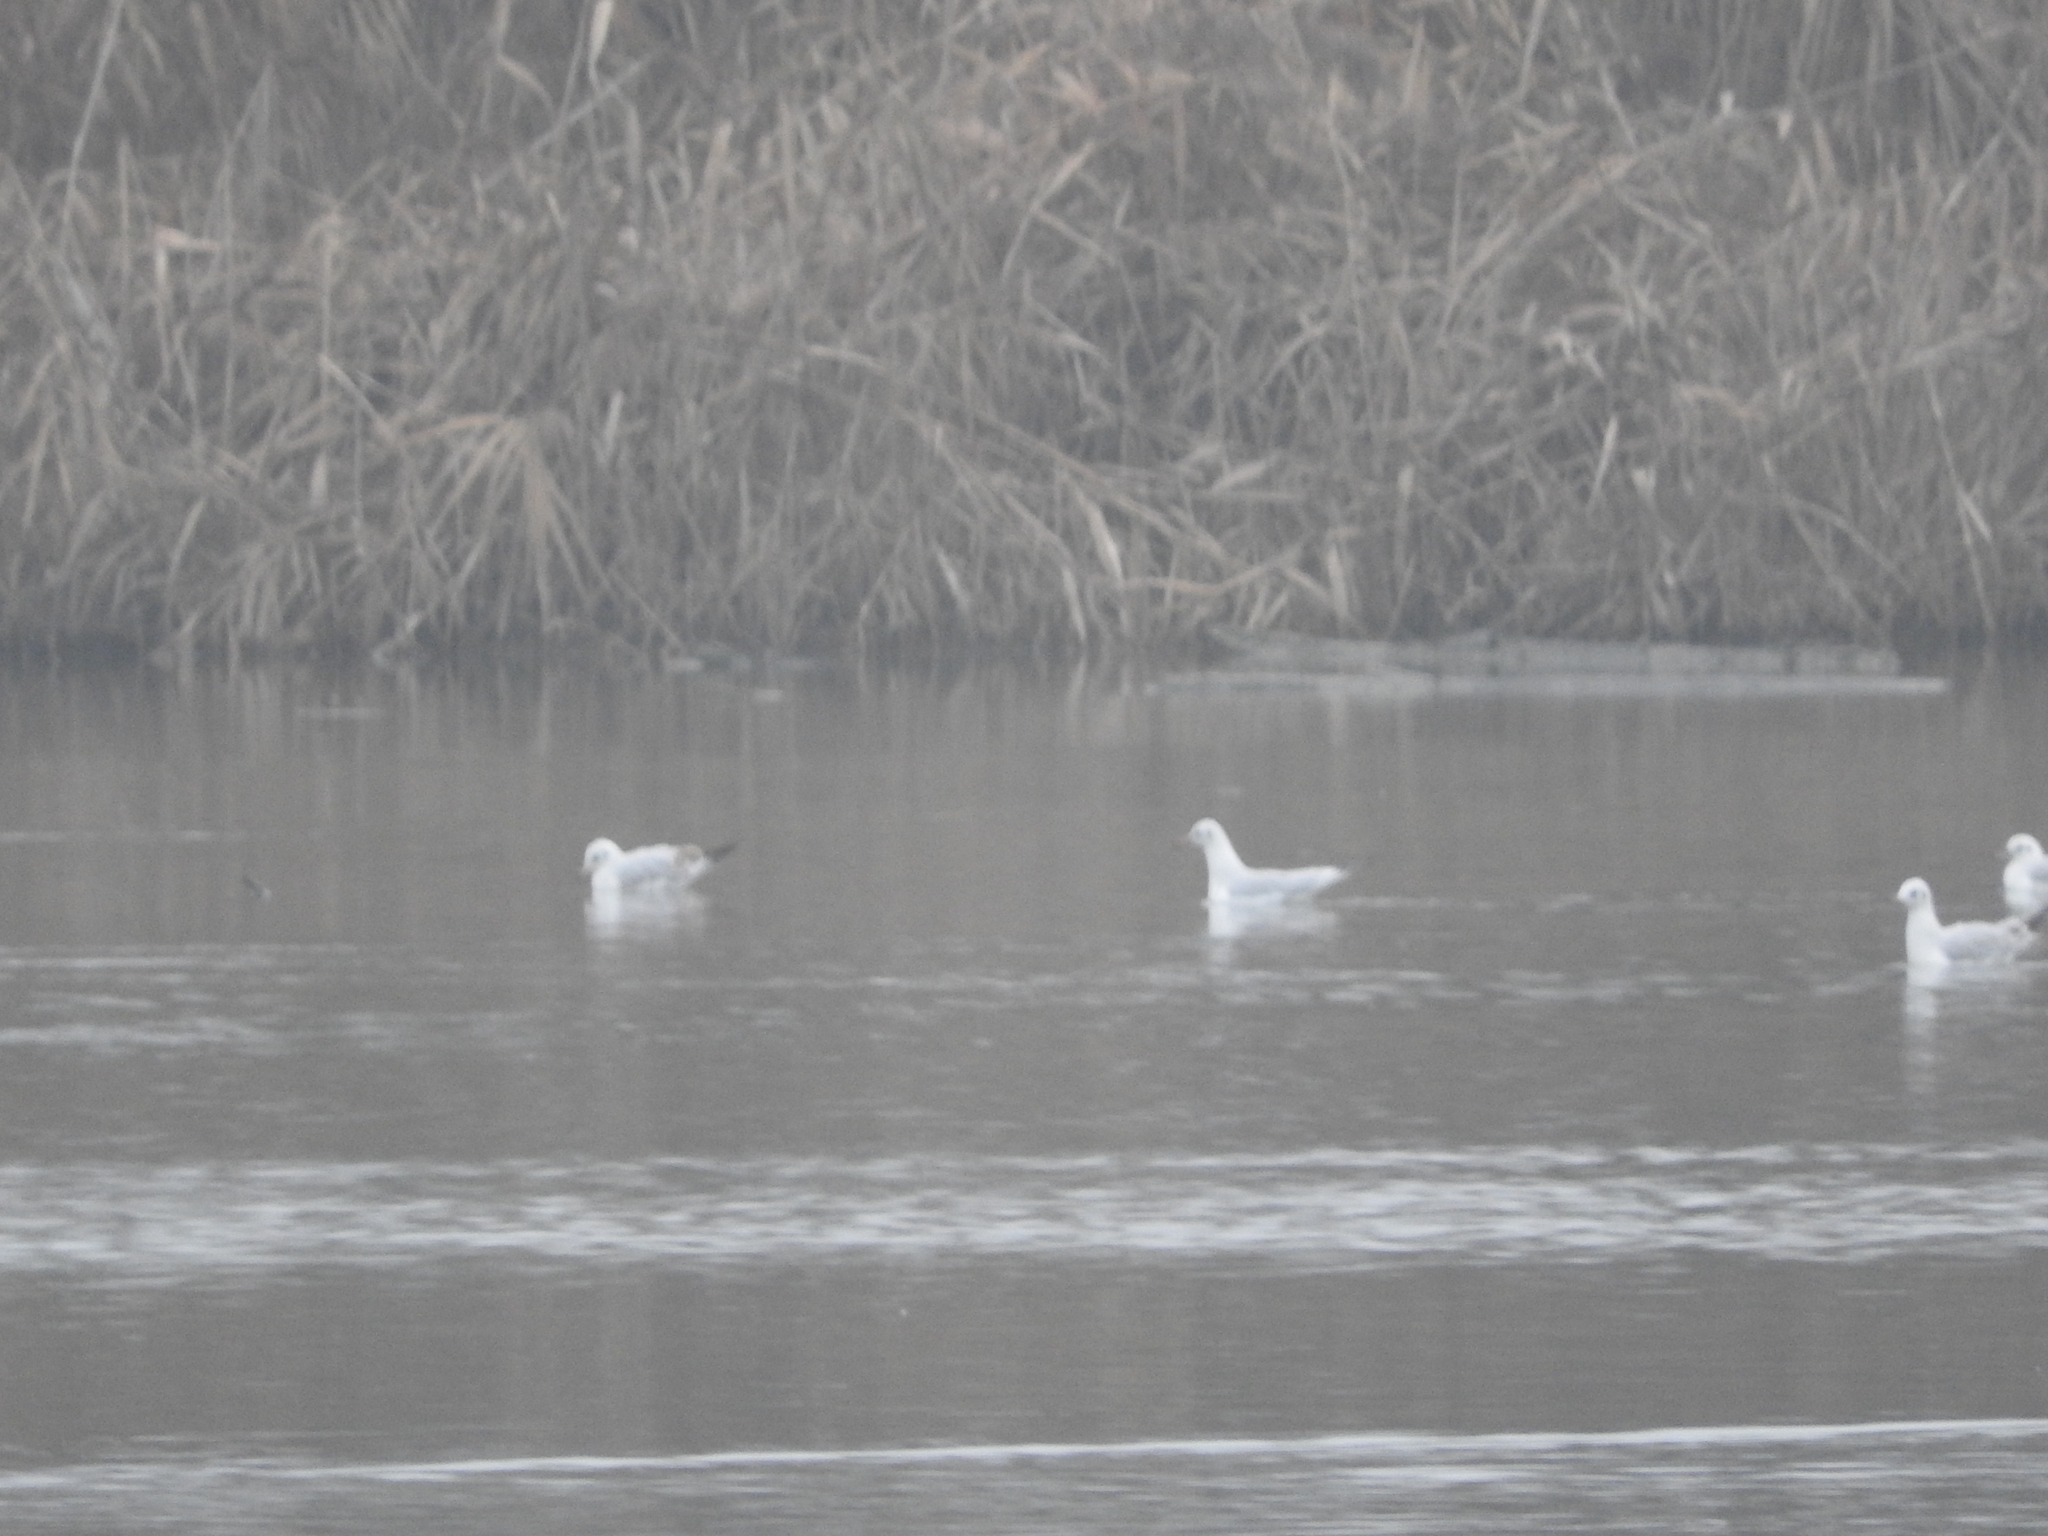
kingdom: Animalia
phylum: Chordata
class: Aves
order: Charadriiformes
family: Laridae
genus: Chroicocephalus
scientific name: Chroicocephalus ridibundus
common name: Black-headed gull
